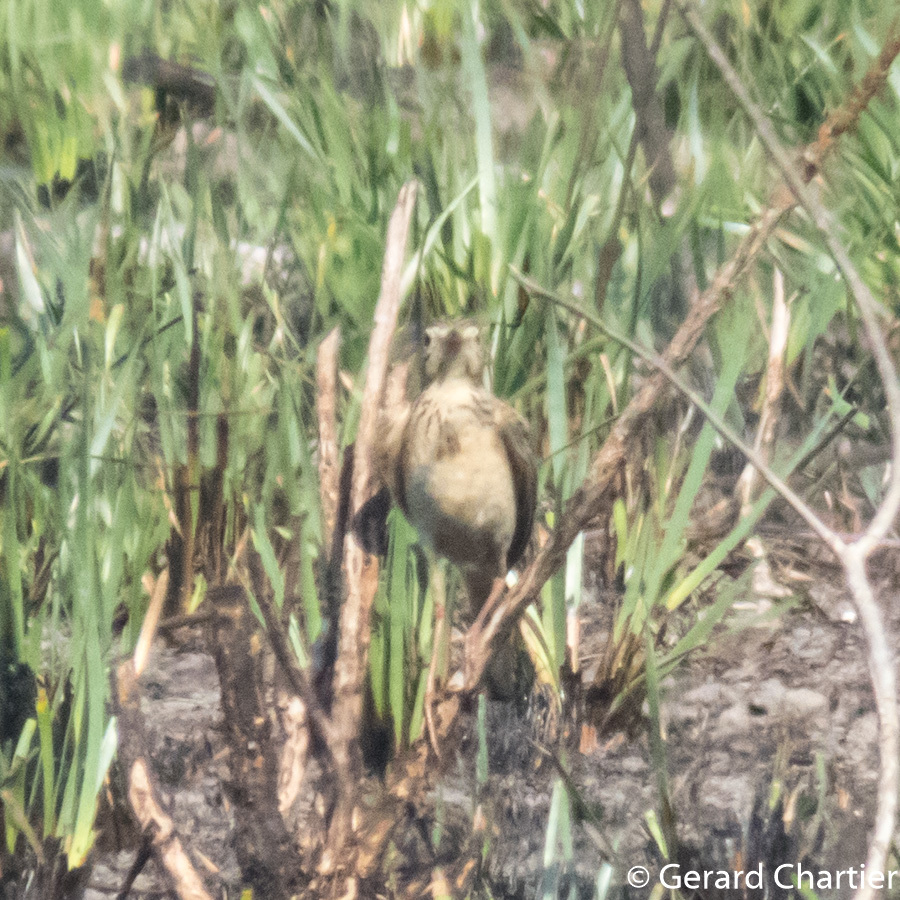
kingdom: Animalia
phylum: Chordata
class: Aves
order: Passeriformes
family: Motacillidae
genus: Anthus
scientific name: Anthus rufulus
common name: Paddyfield pipit
